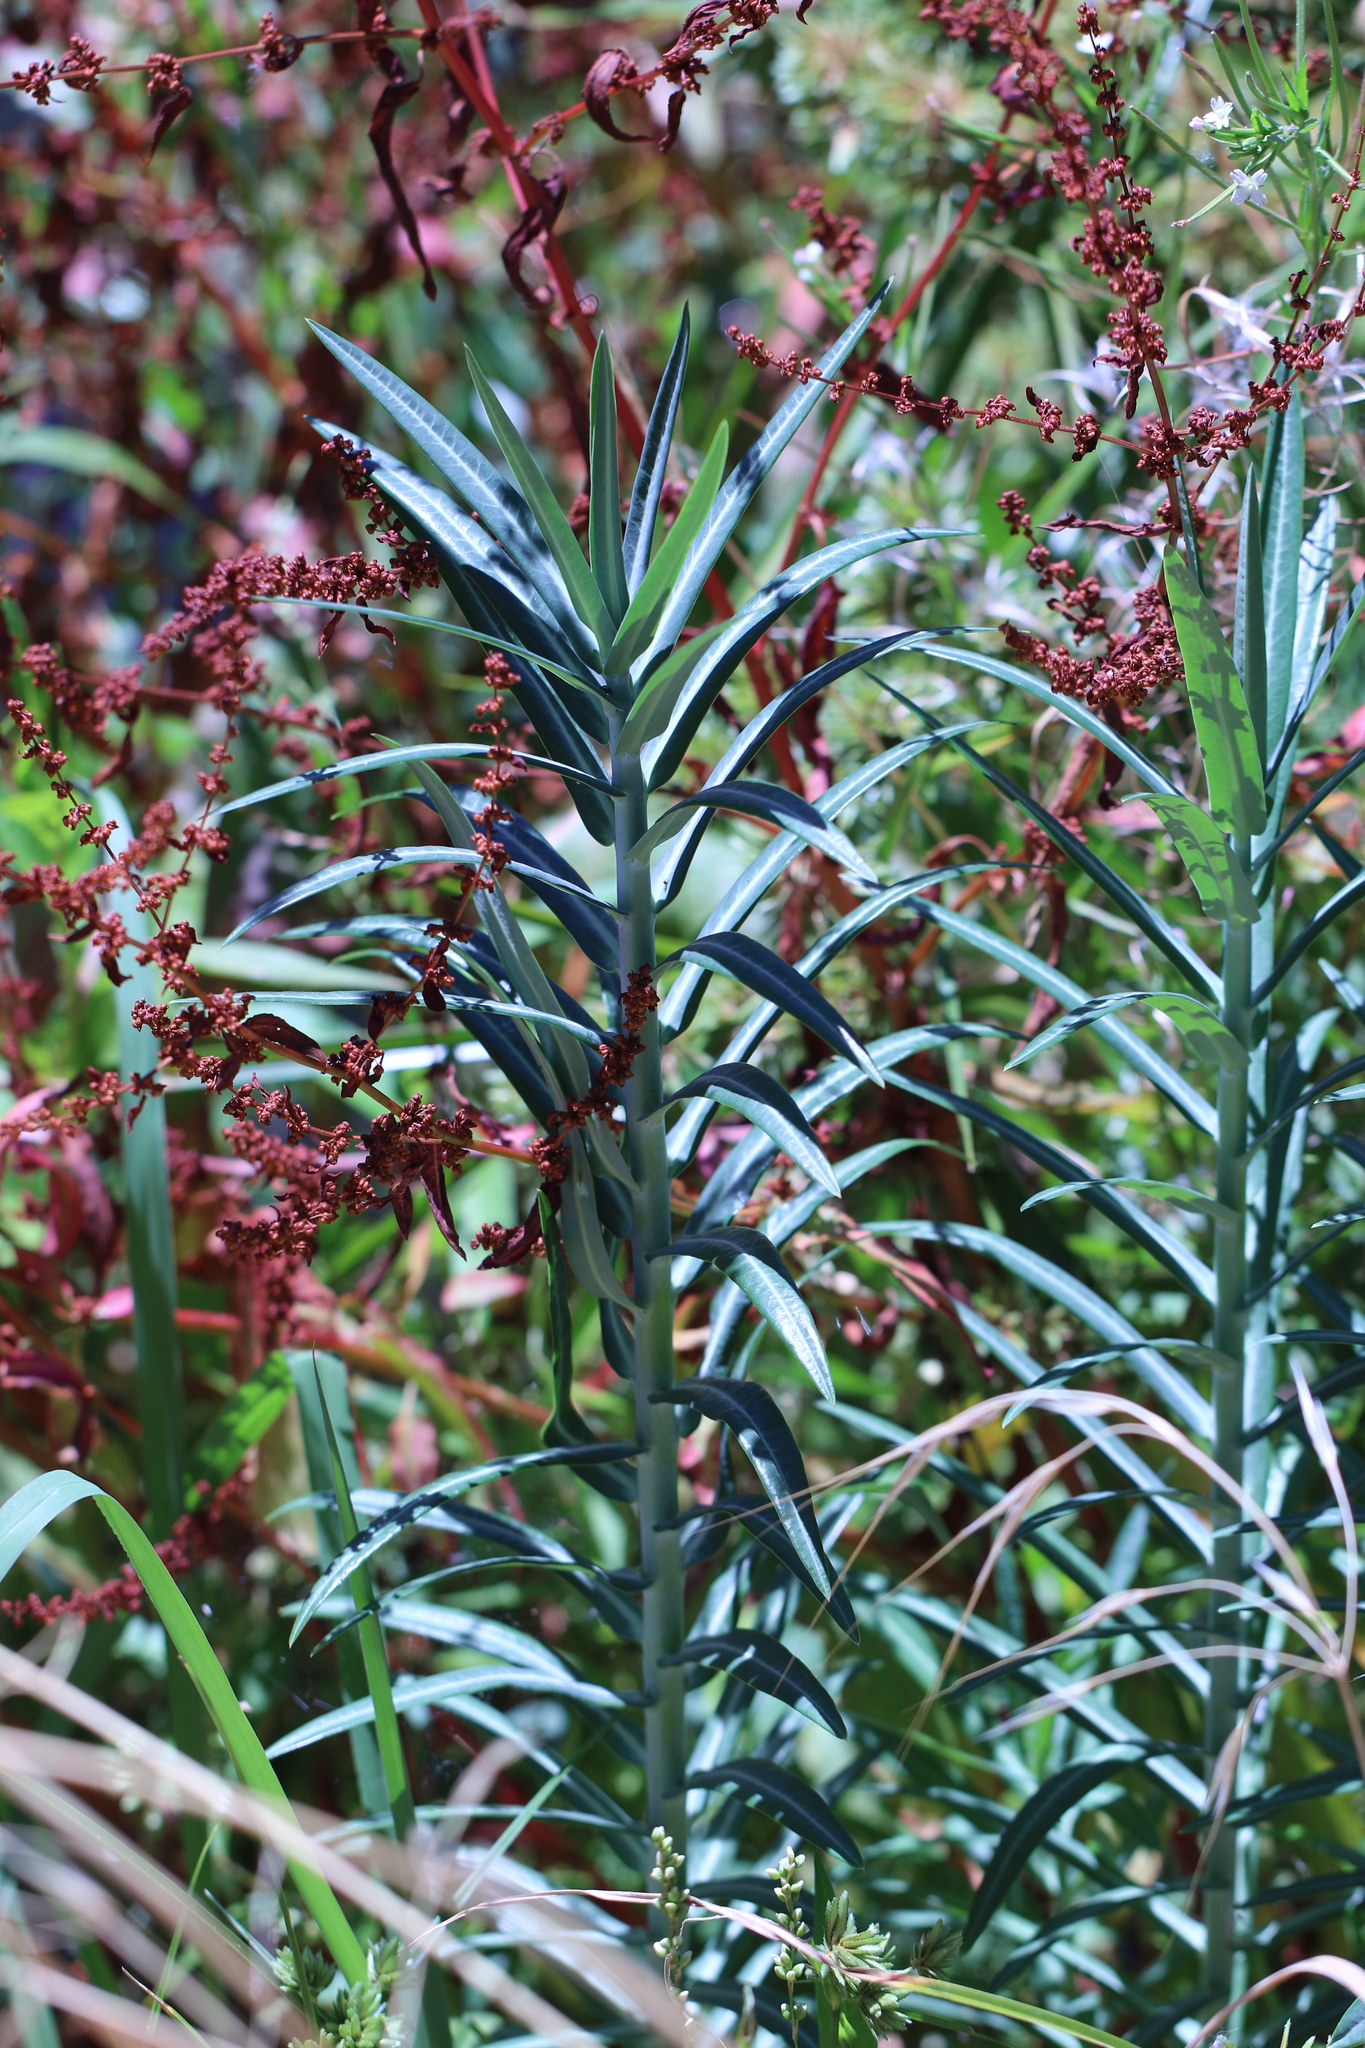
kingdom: Plantae
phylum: Tracheophyta
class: Magnoliopsida
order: Malpighiales
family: Euphorbiaceae
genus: Euphorbia
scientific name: Euphorbia lathyris
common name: Caper spurge
